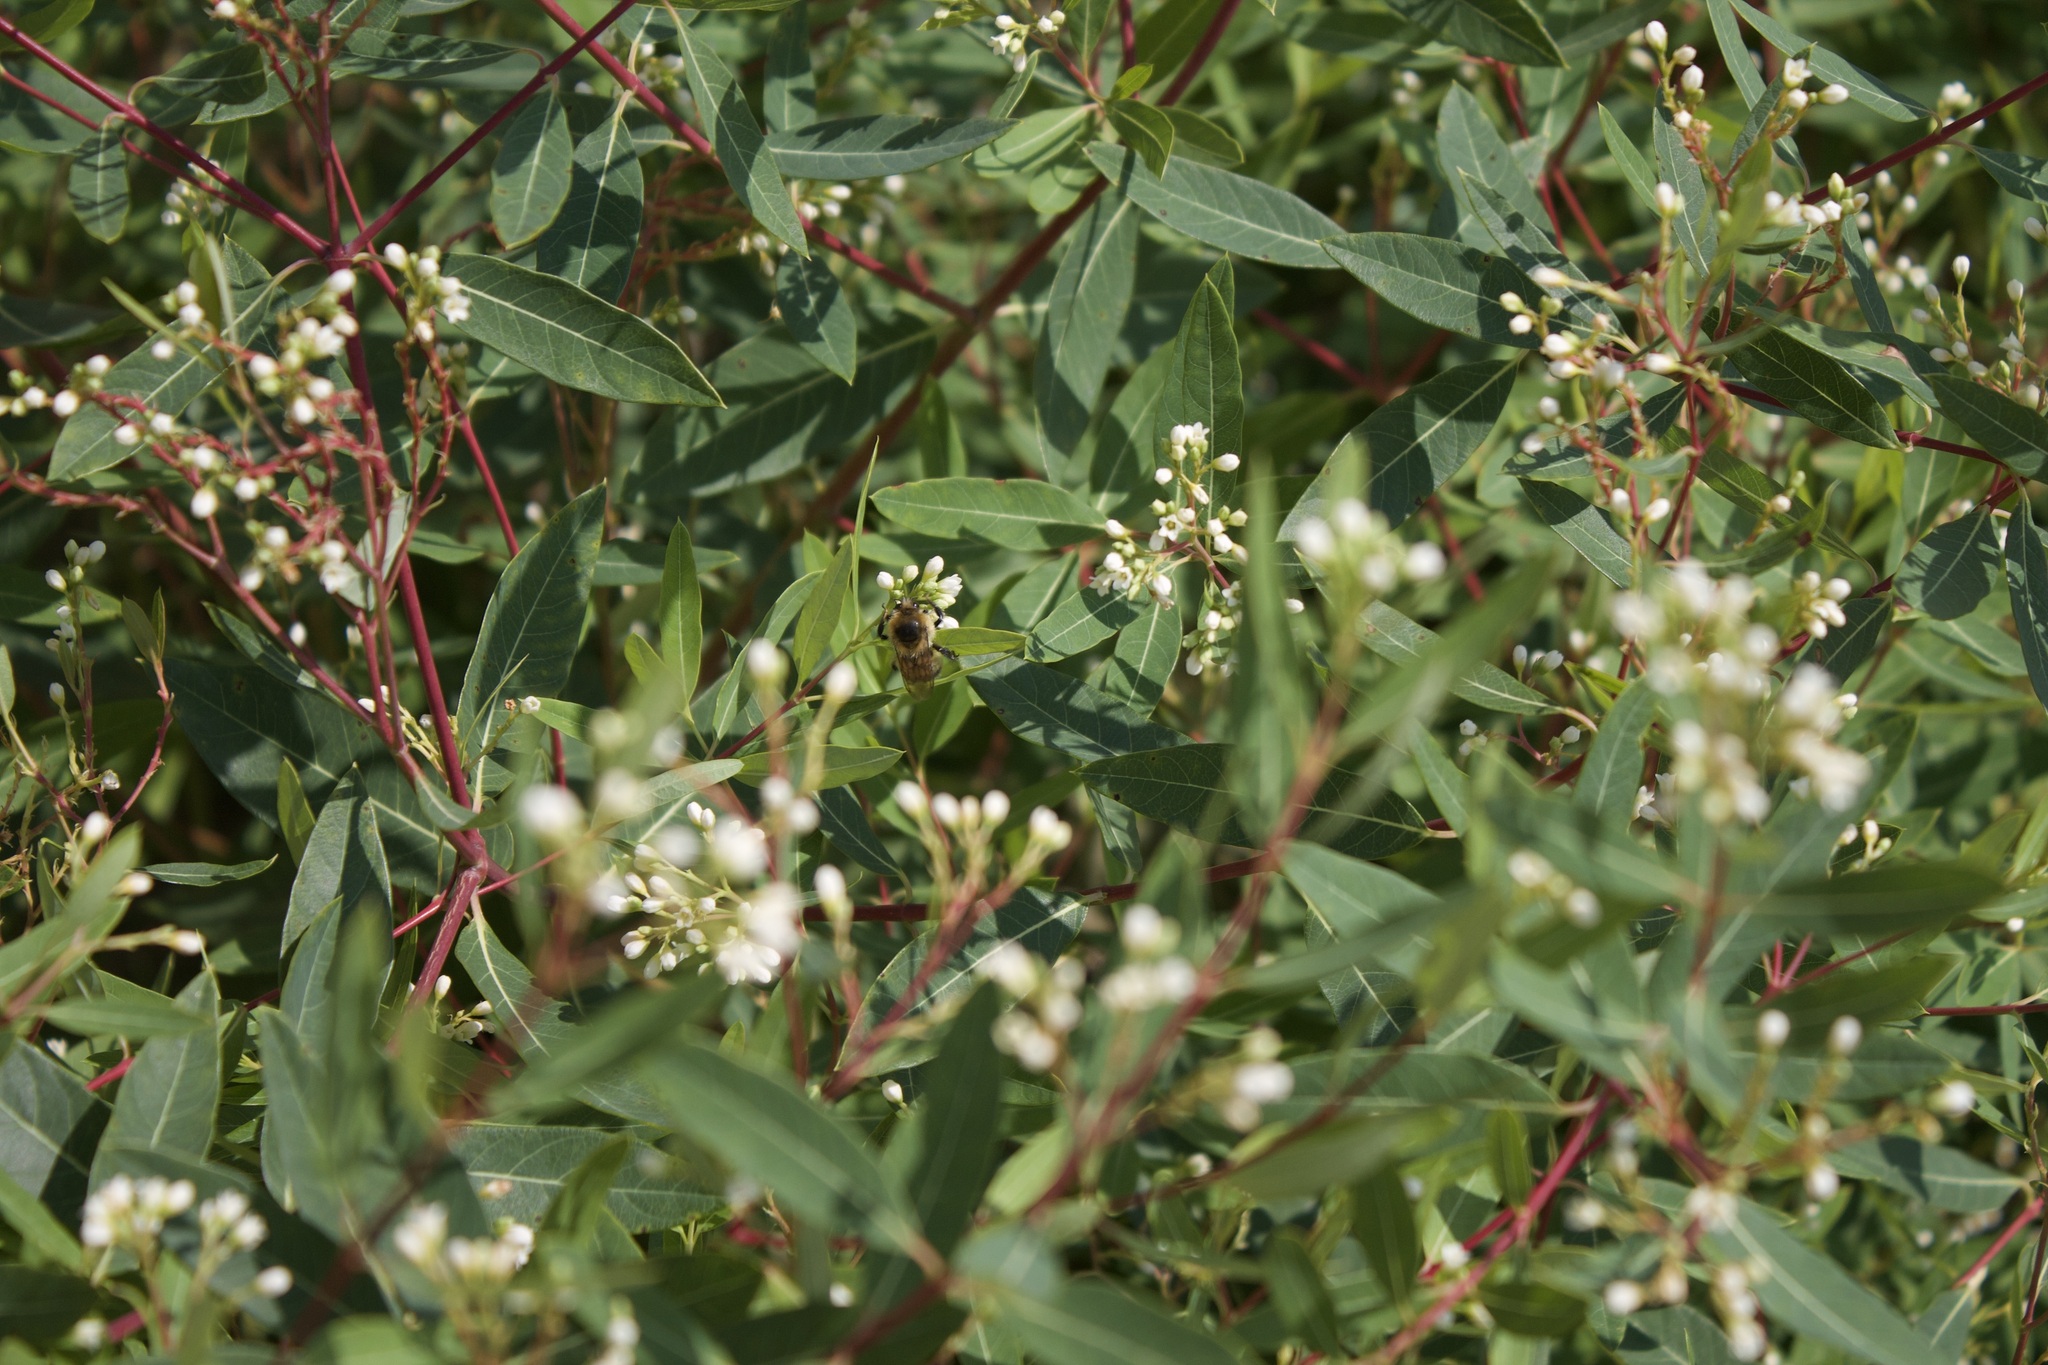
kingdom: Animalia
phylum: Arthropoda
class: Insecta
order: Hymenoptera
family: Apidae
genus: Bombus
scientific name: Bombus rufocinctus
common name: Red-belted bumble bee
